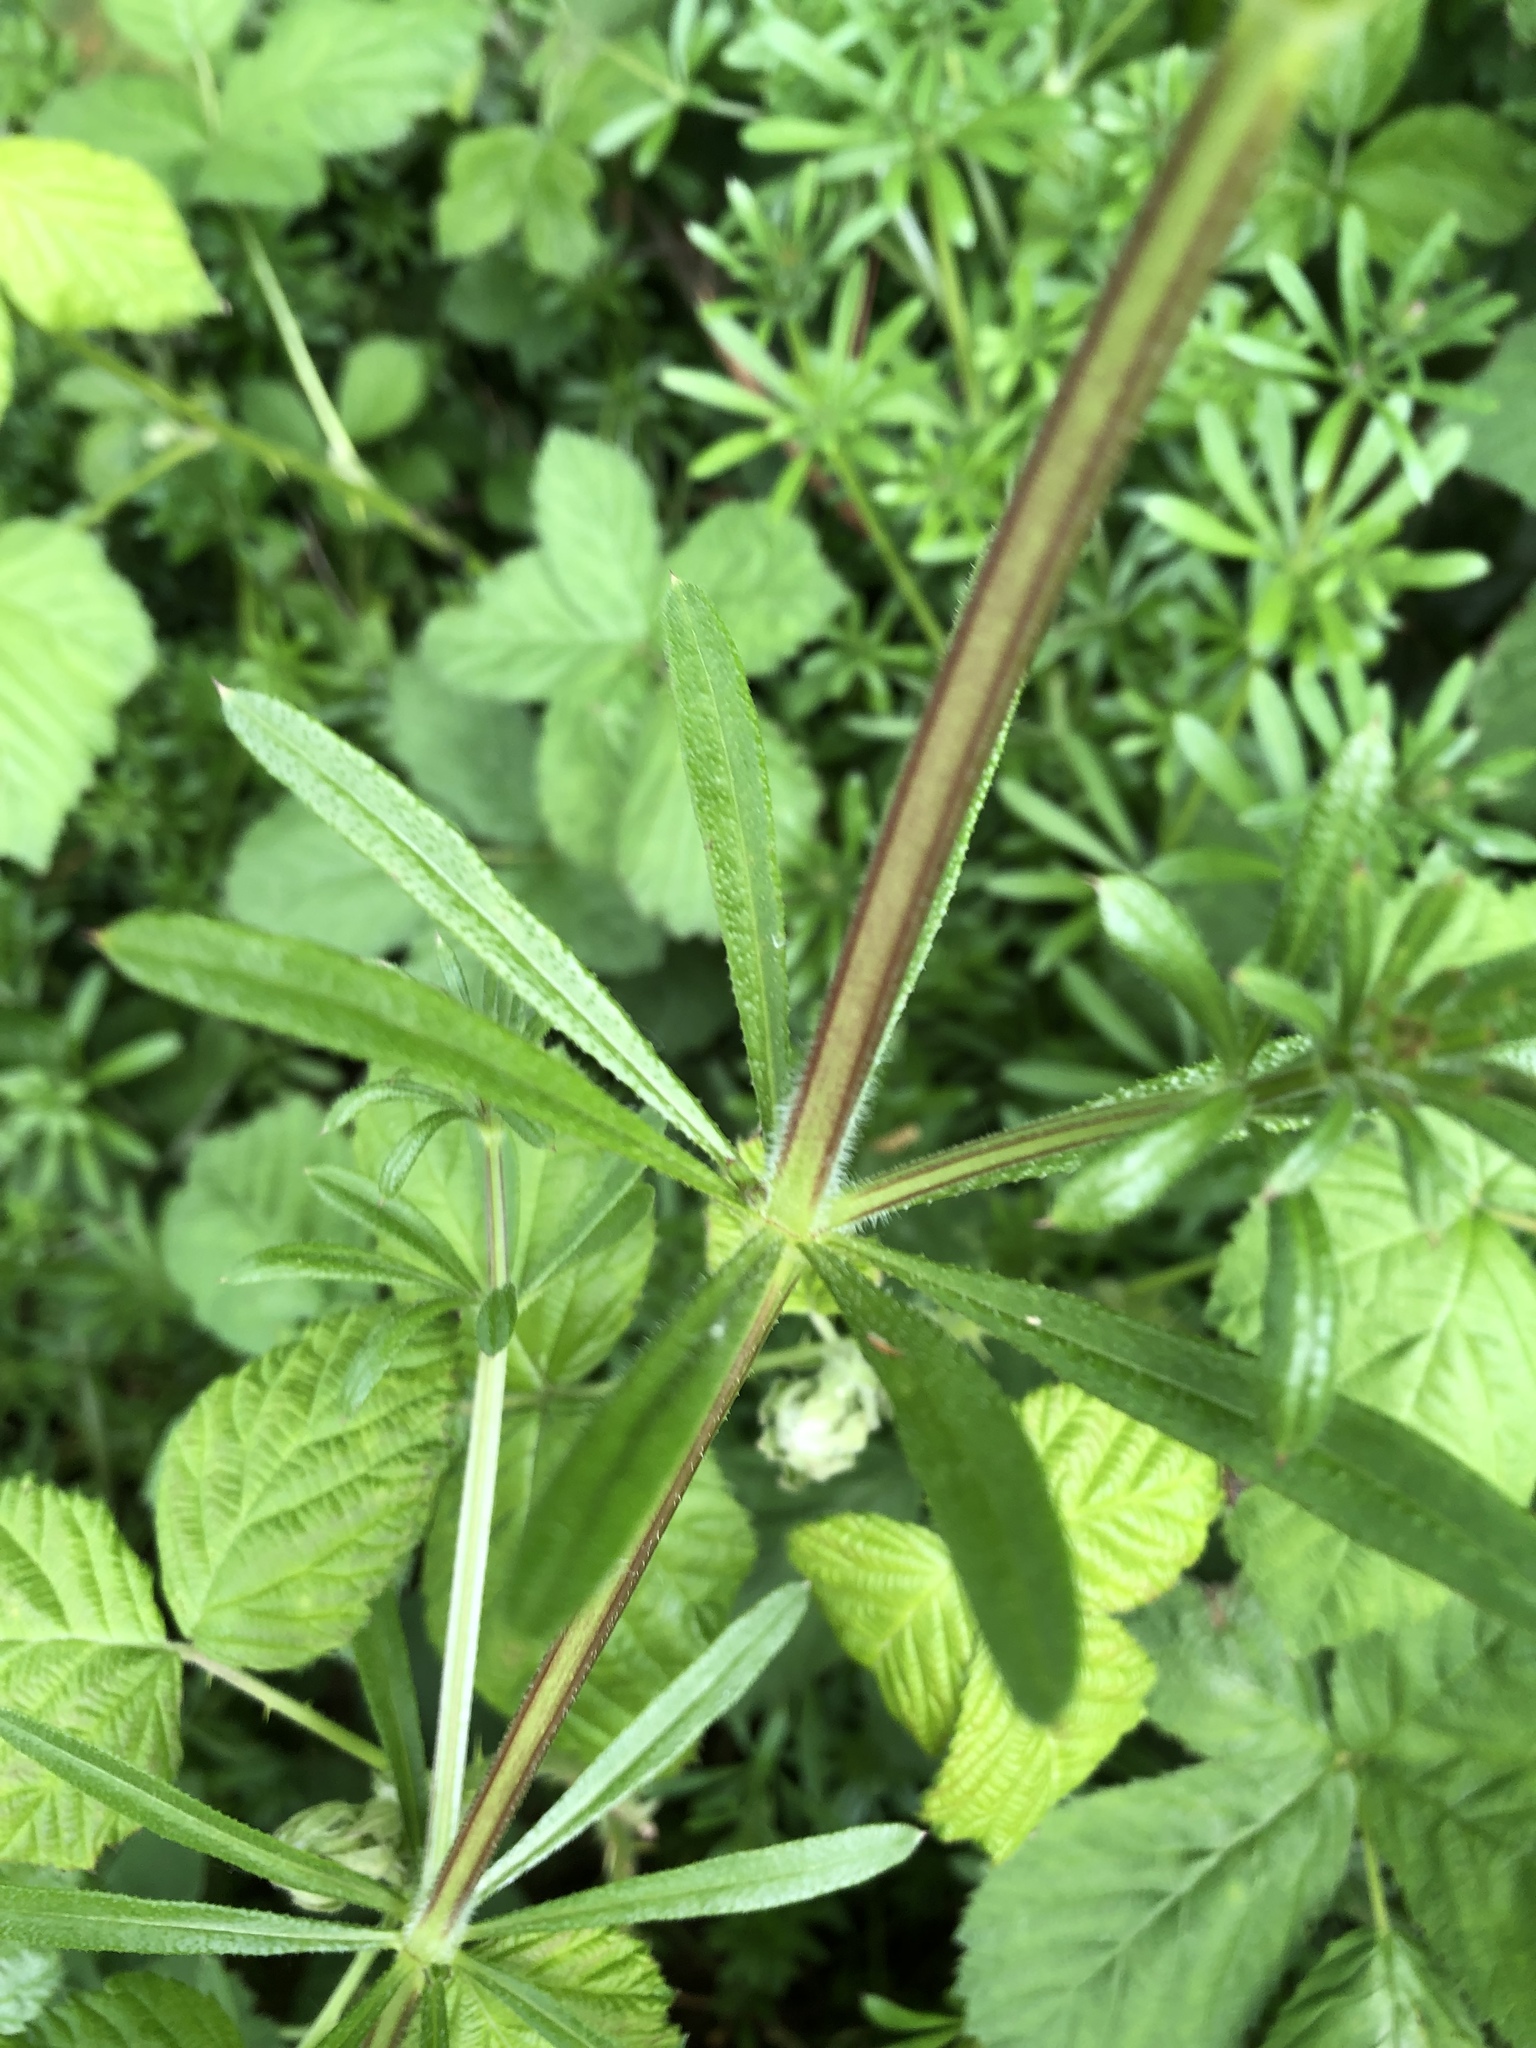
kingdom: Plantae
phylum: Tracheophyta
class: Magnoliopsida
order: Gentianales
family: Rubiaceae
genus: Galium
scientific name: Galium aparine
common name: Cleavers
